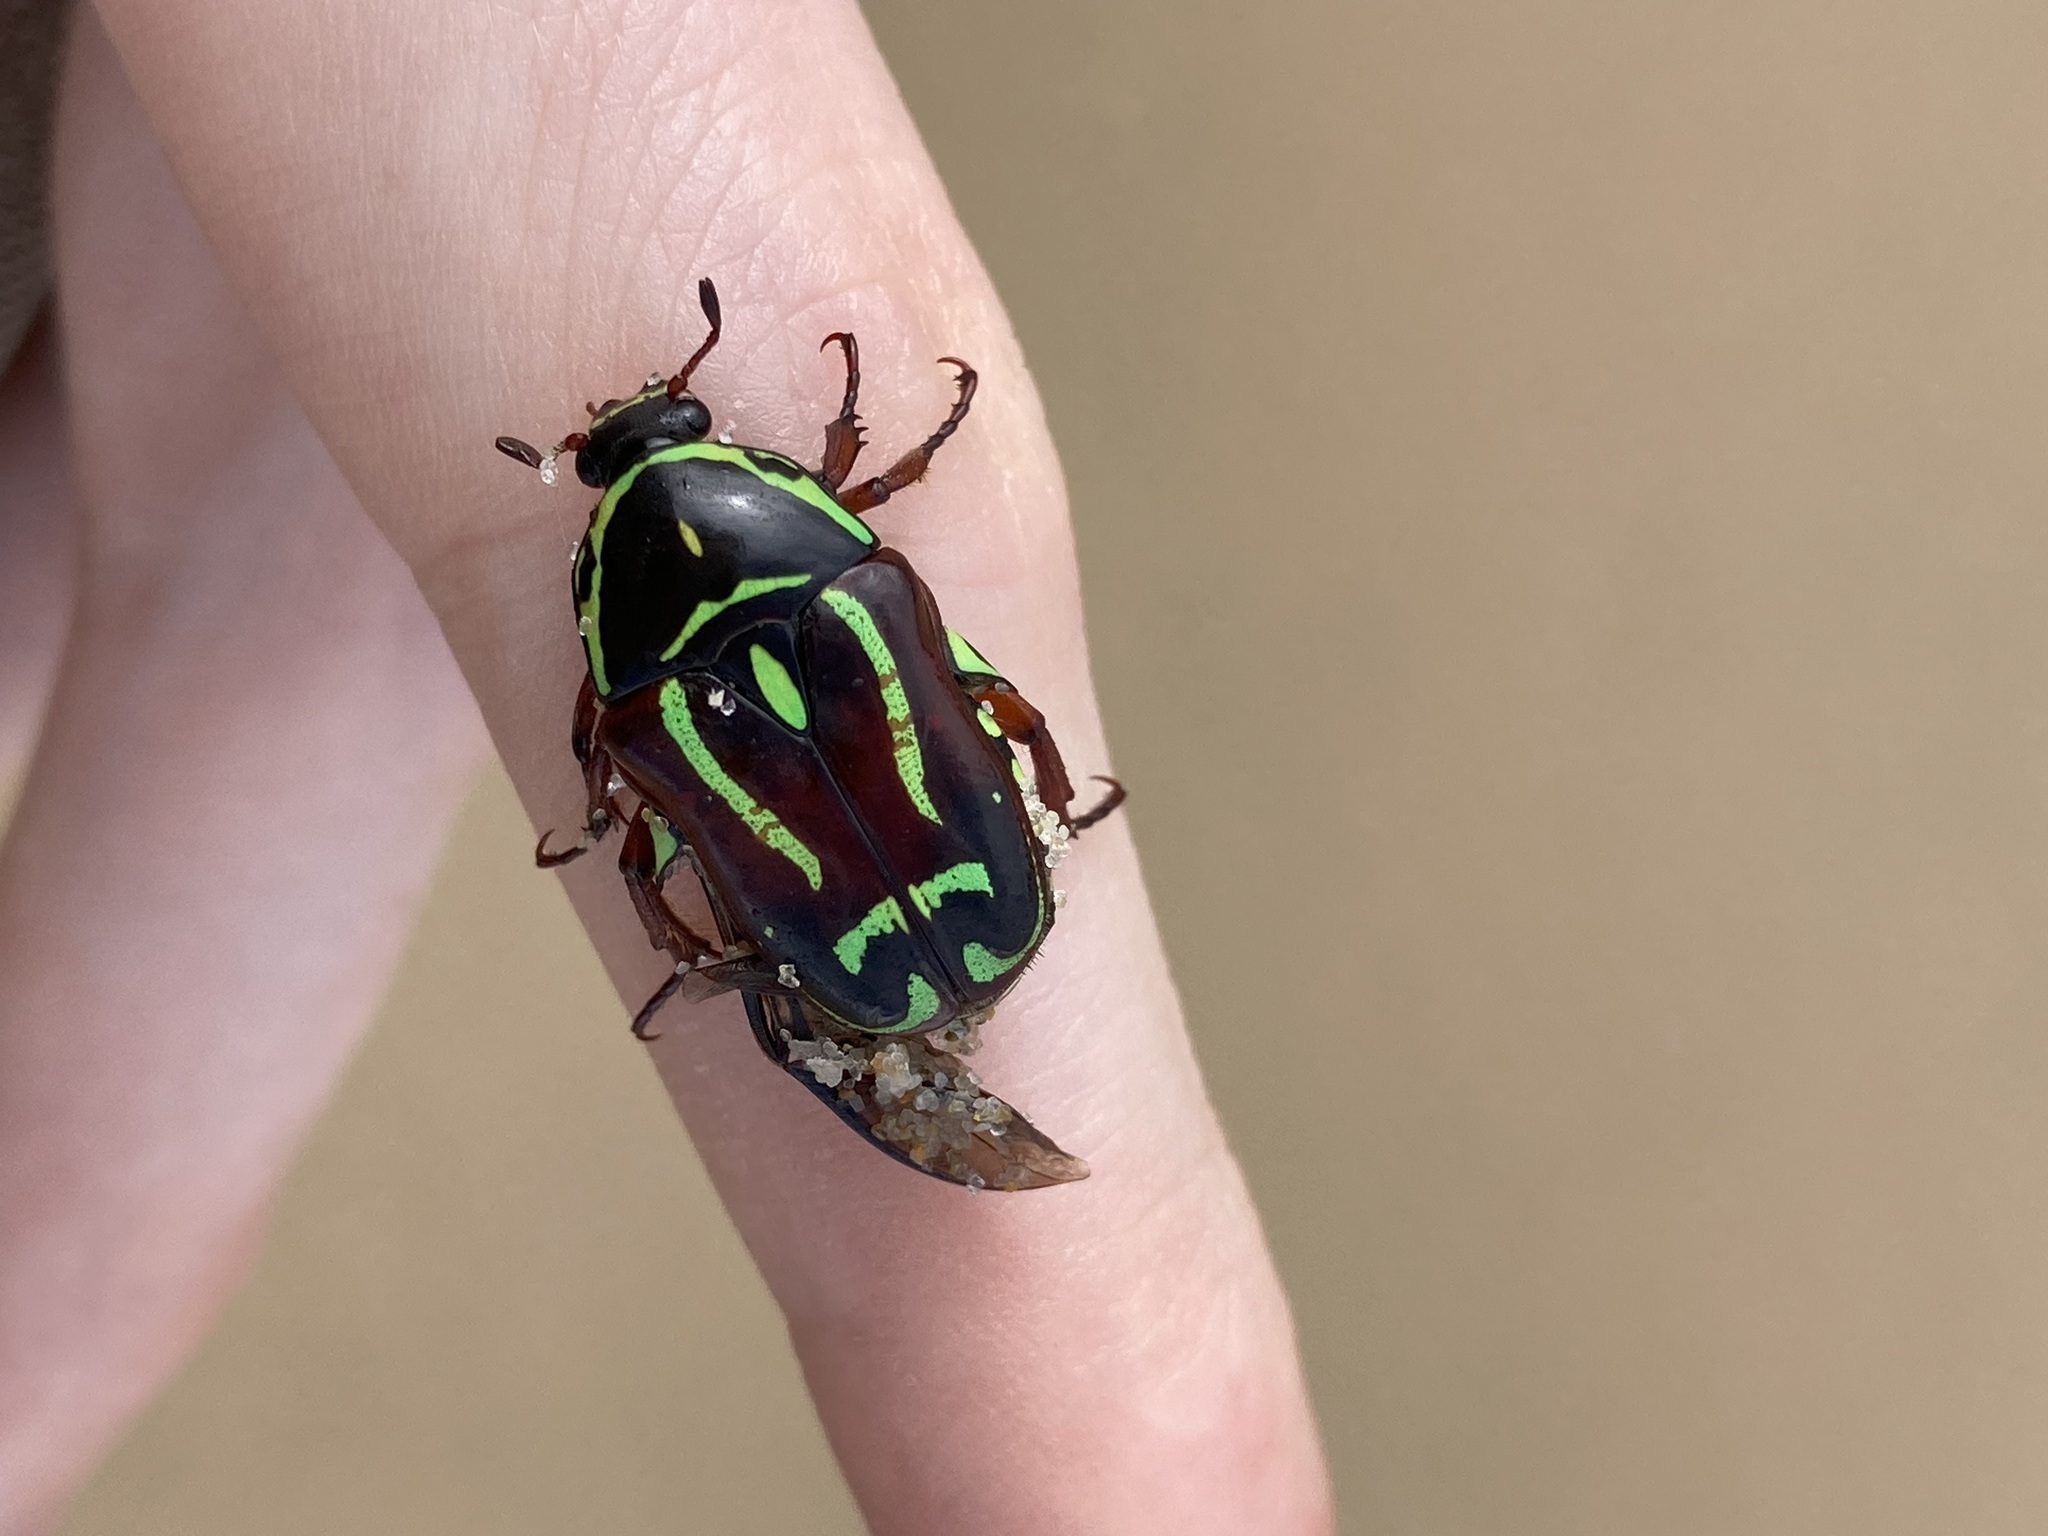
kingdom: Animalia
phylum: Arthropoda
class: Insecta
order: Coleoptera
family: Scarabaeidae
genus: Eupoecila
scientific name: Eupoecila australasiae
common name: Fiddler beetle
